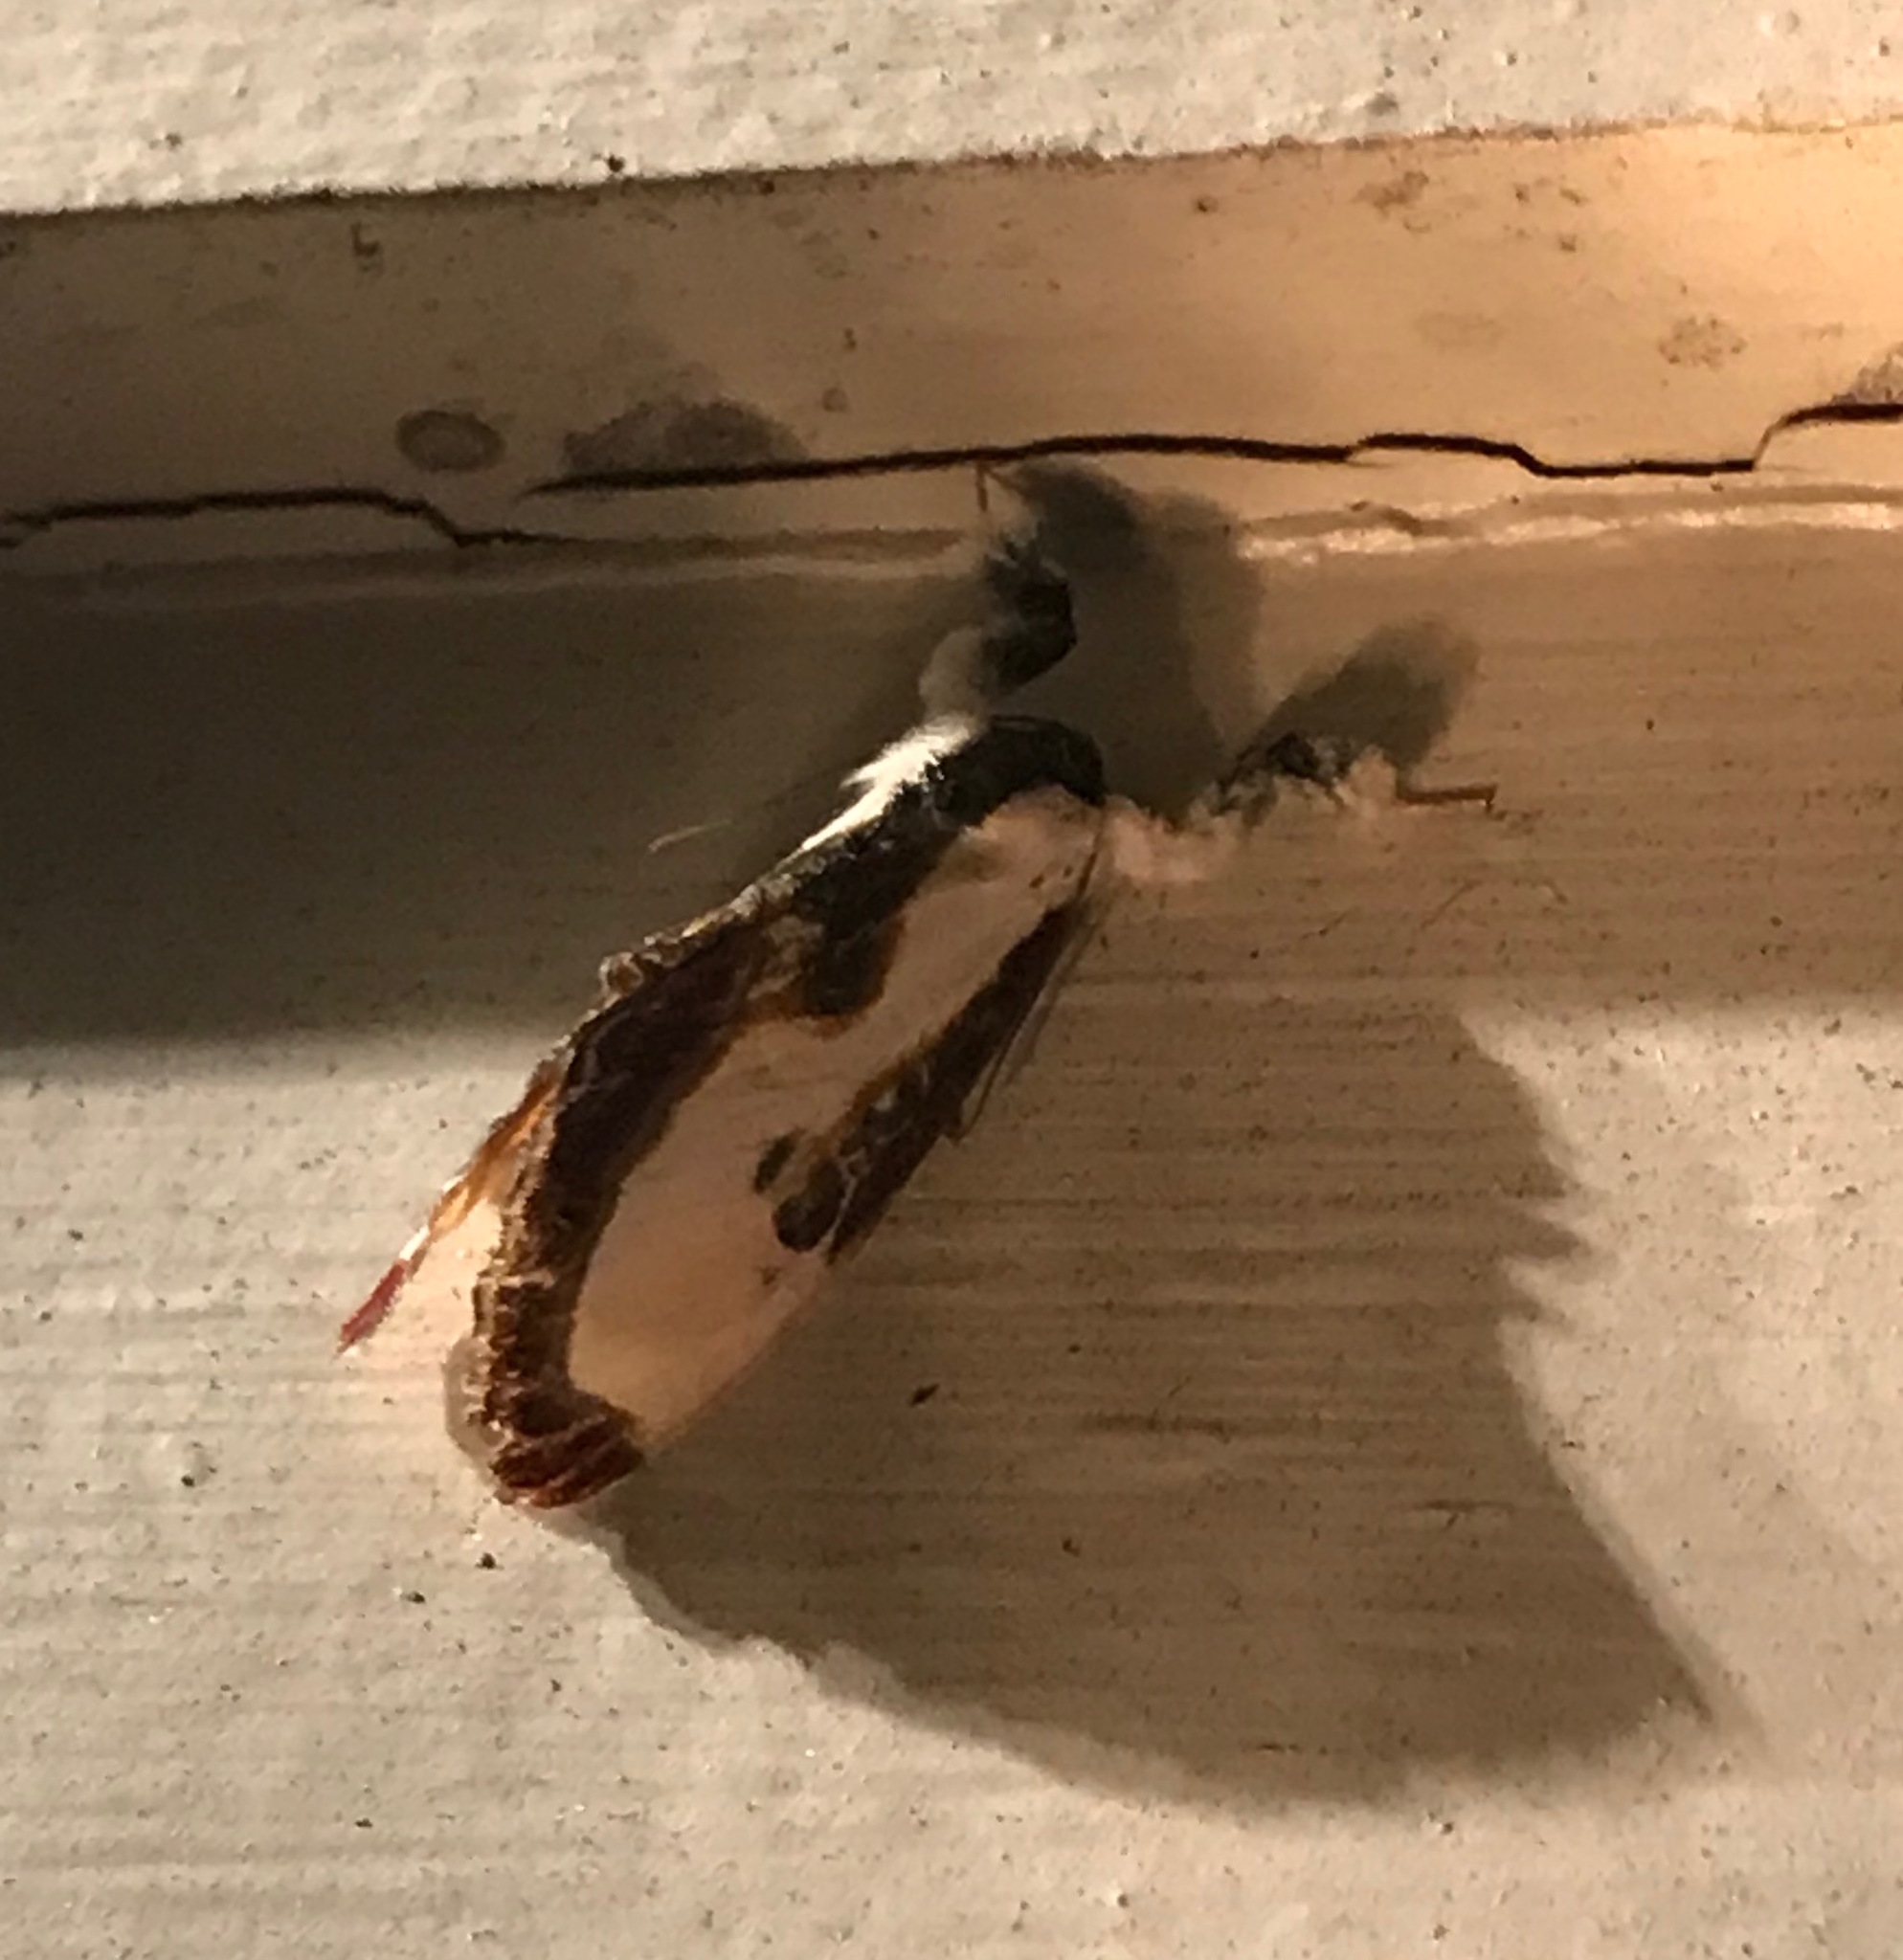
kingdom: Animalia
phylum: Arthropoda
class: Insecta
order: Lepidoptera
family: Noctuidae
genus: Eudryas
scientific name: Eudryas grata
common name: Beautiful wood-nymph
